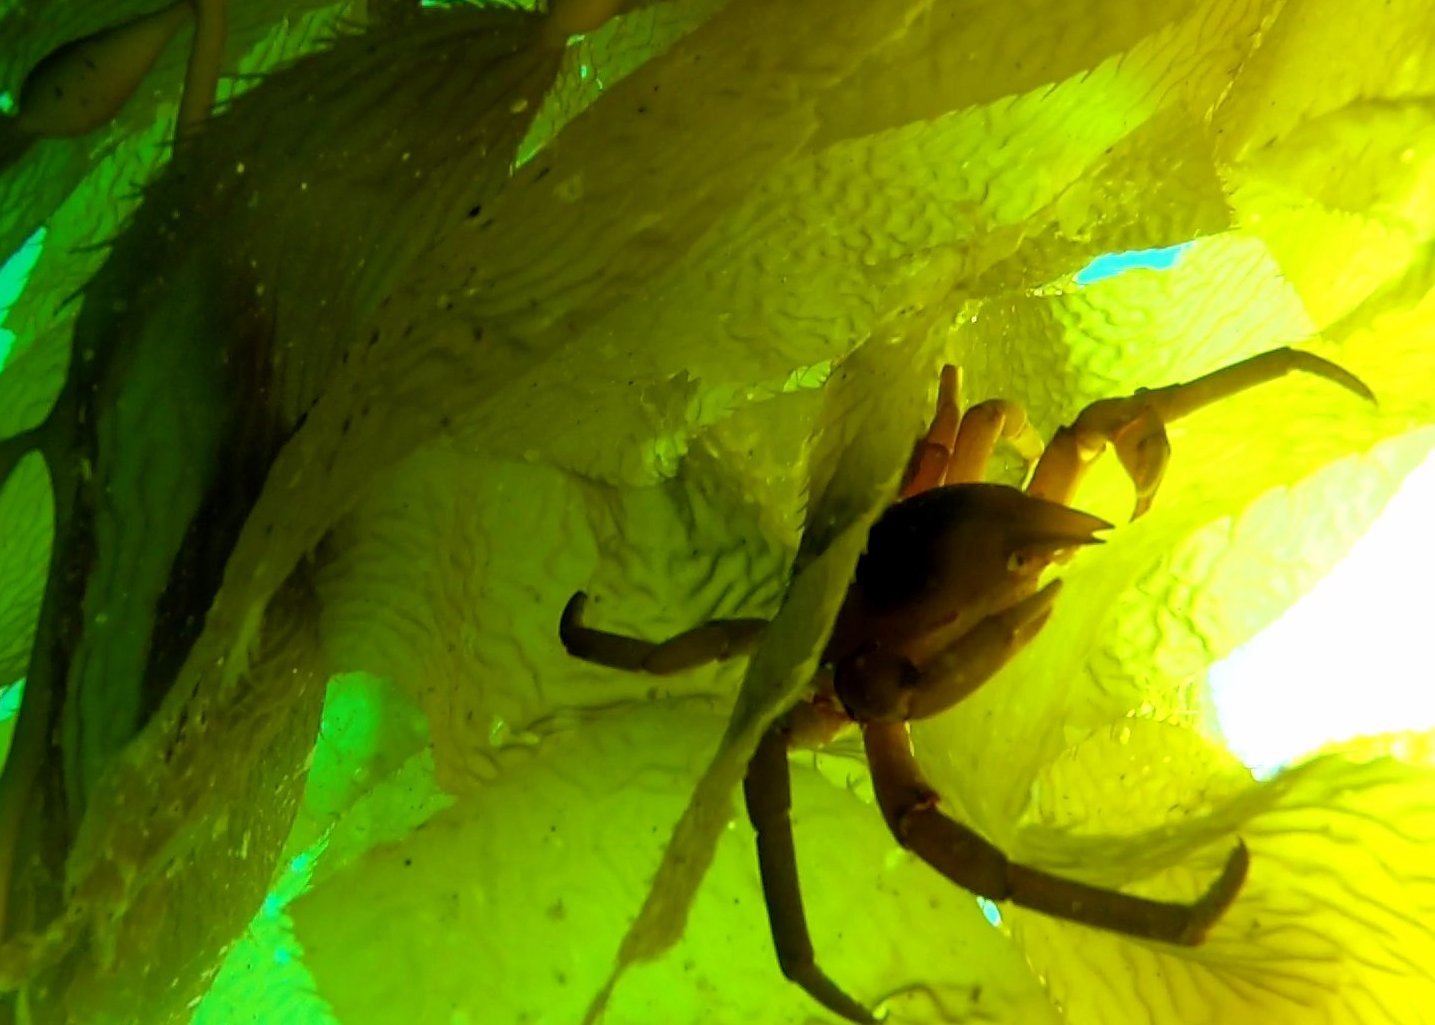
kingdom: Animalia
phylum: Arthropoda
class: Malacostraca
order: Decapoda
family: Epialtidae
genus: Taliepus
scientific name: Taliepus nuttallii
